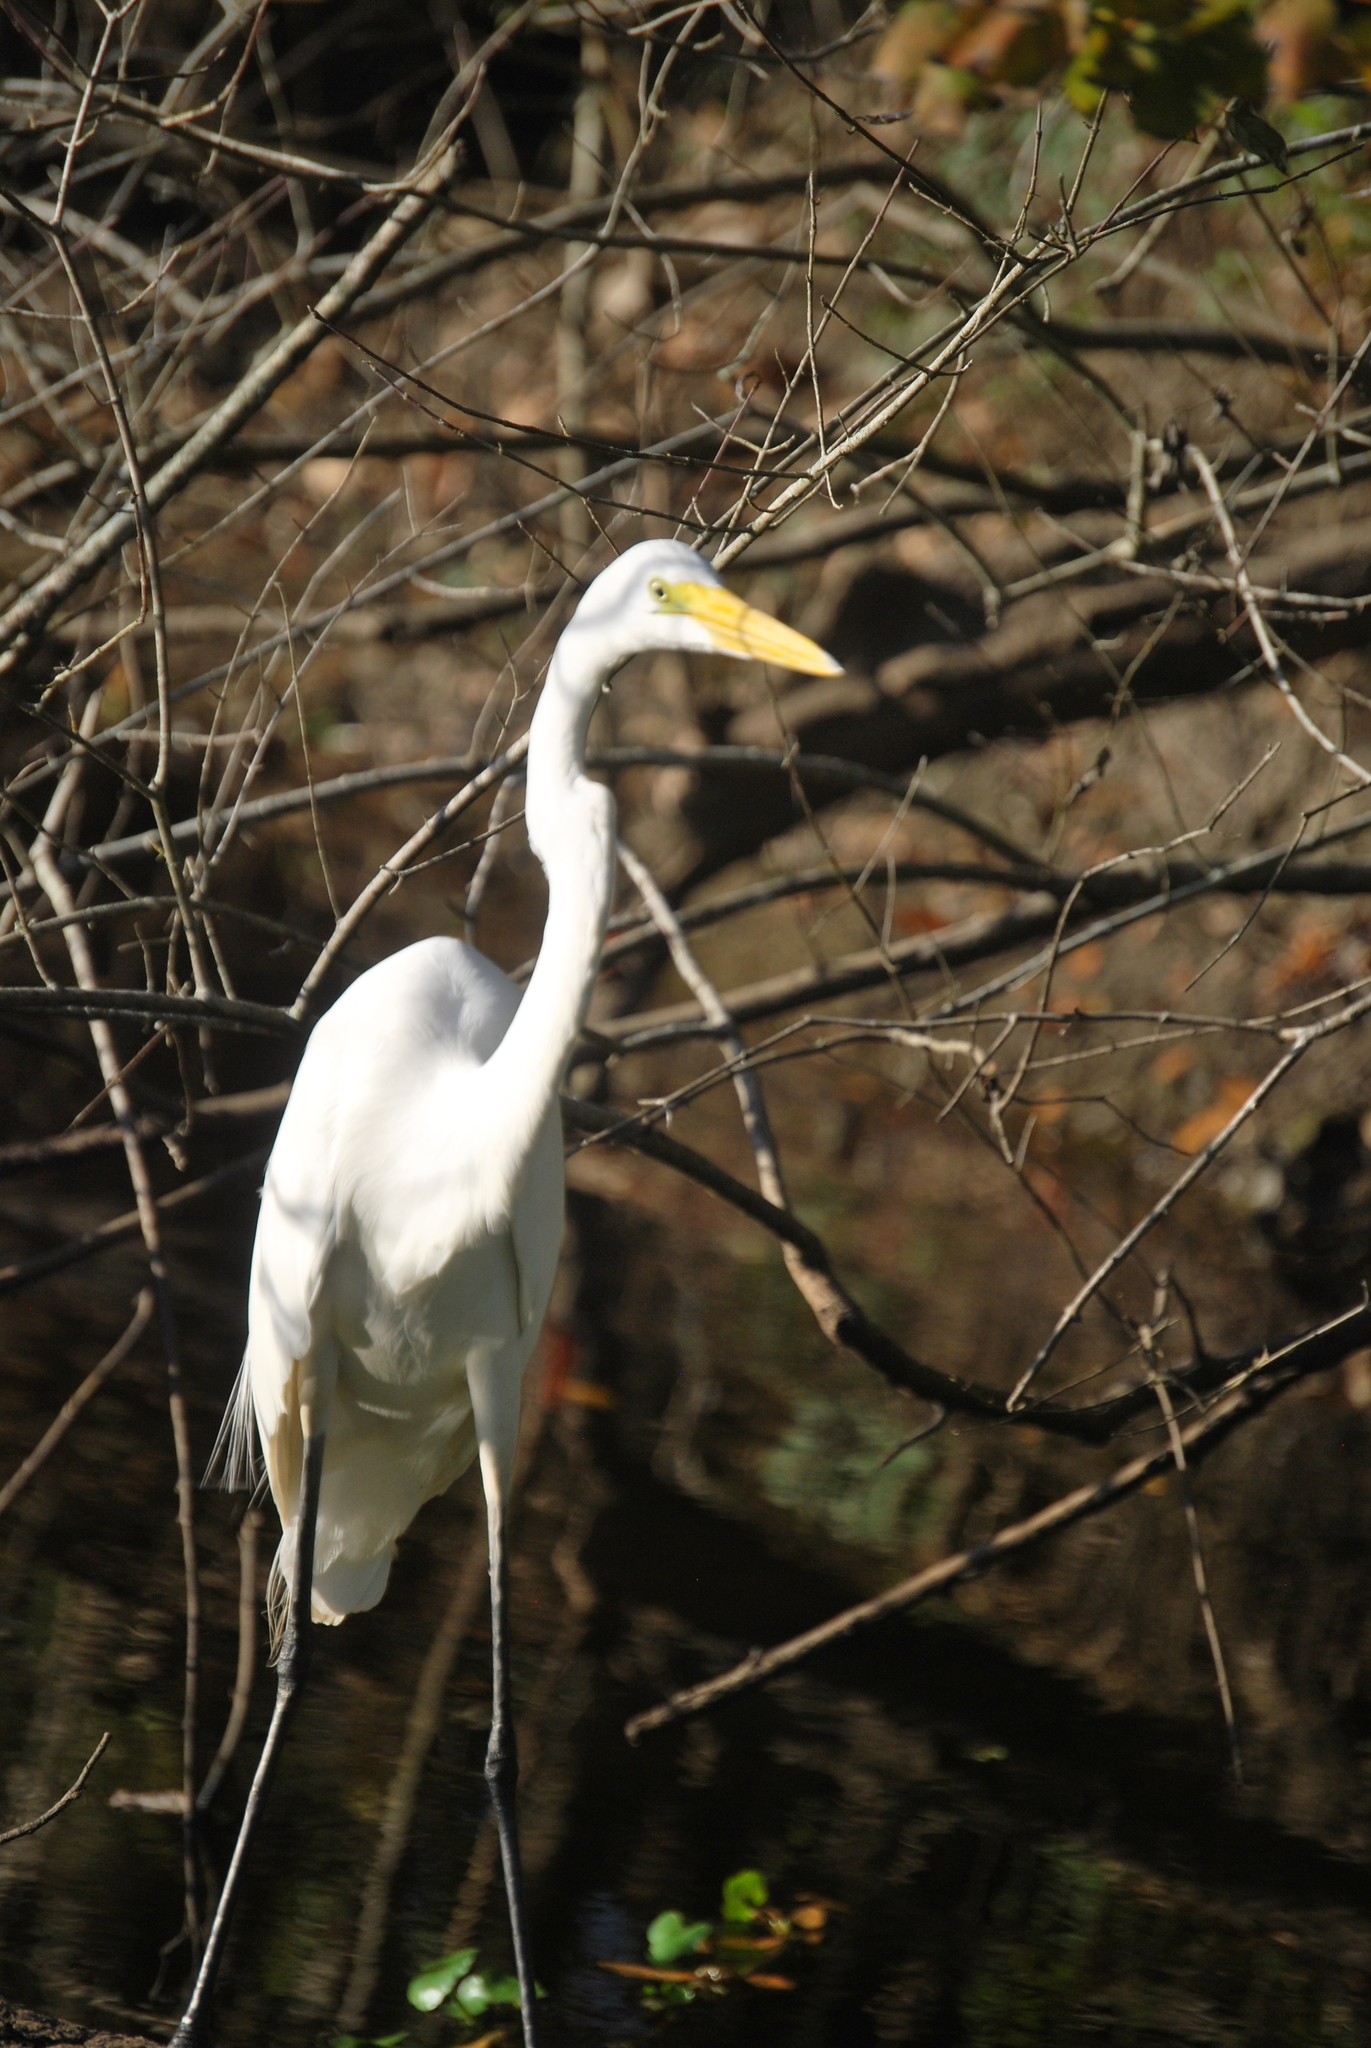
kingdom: Animalia
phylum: Chordata
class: Aves
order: Pelecaniformes
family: Ardeidae
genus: Ardea
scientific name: Ardea alba
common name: Great egret
